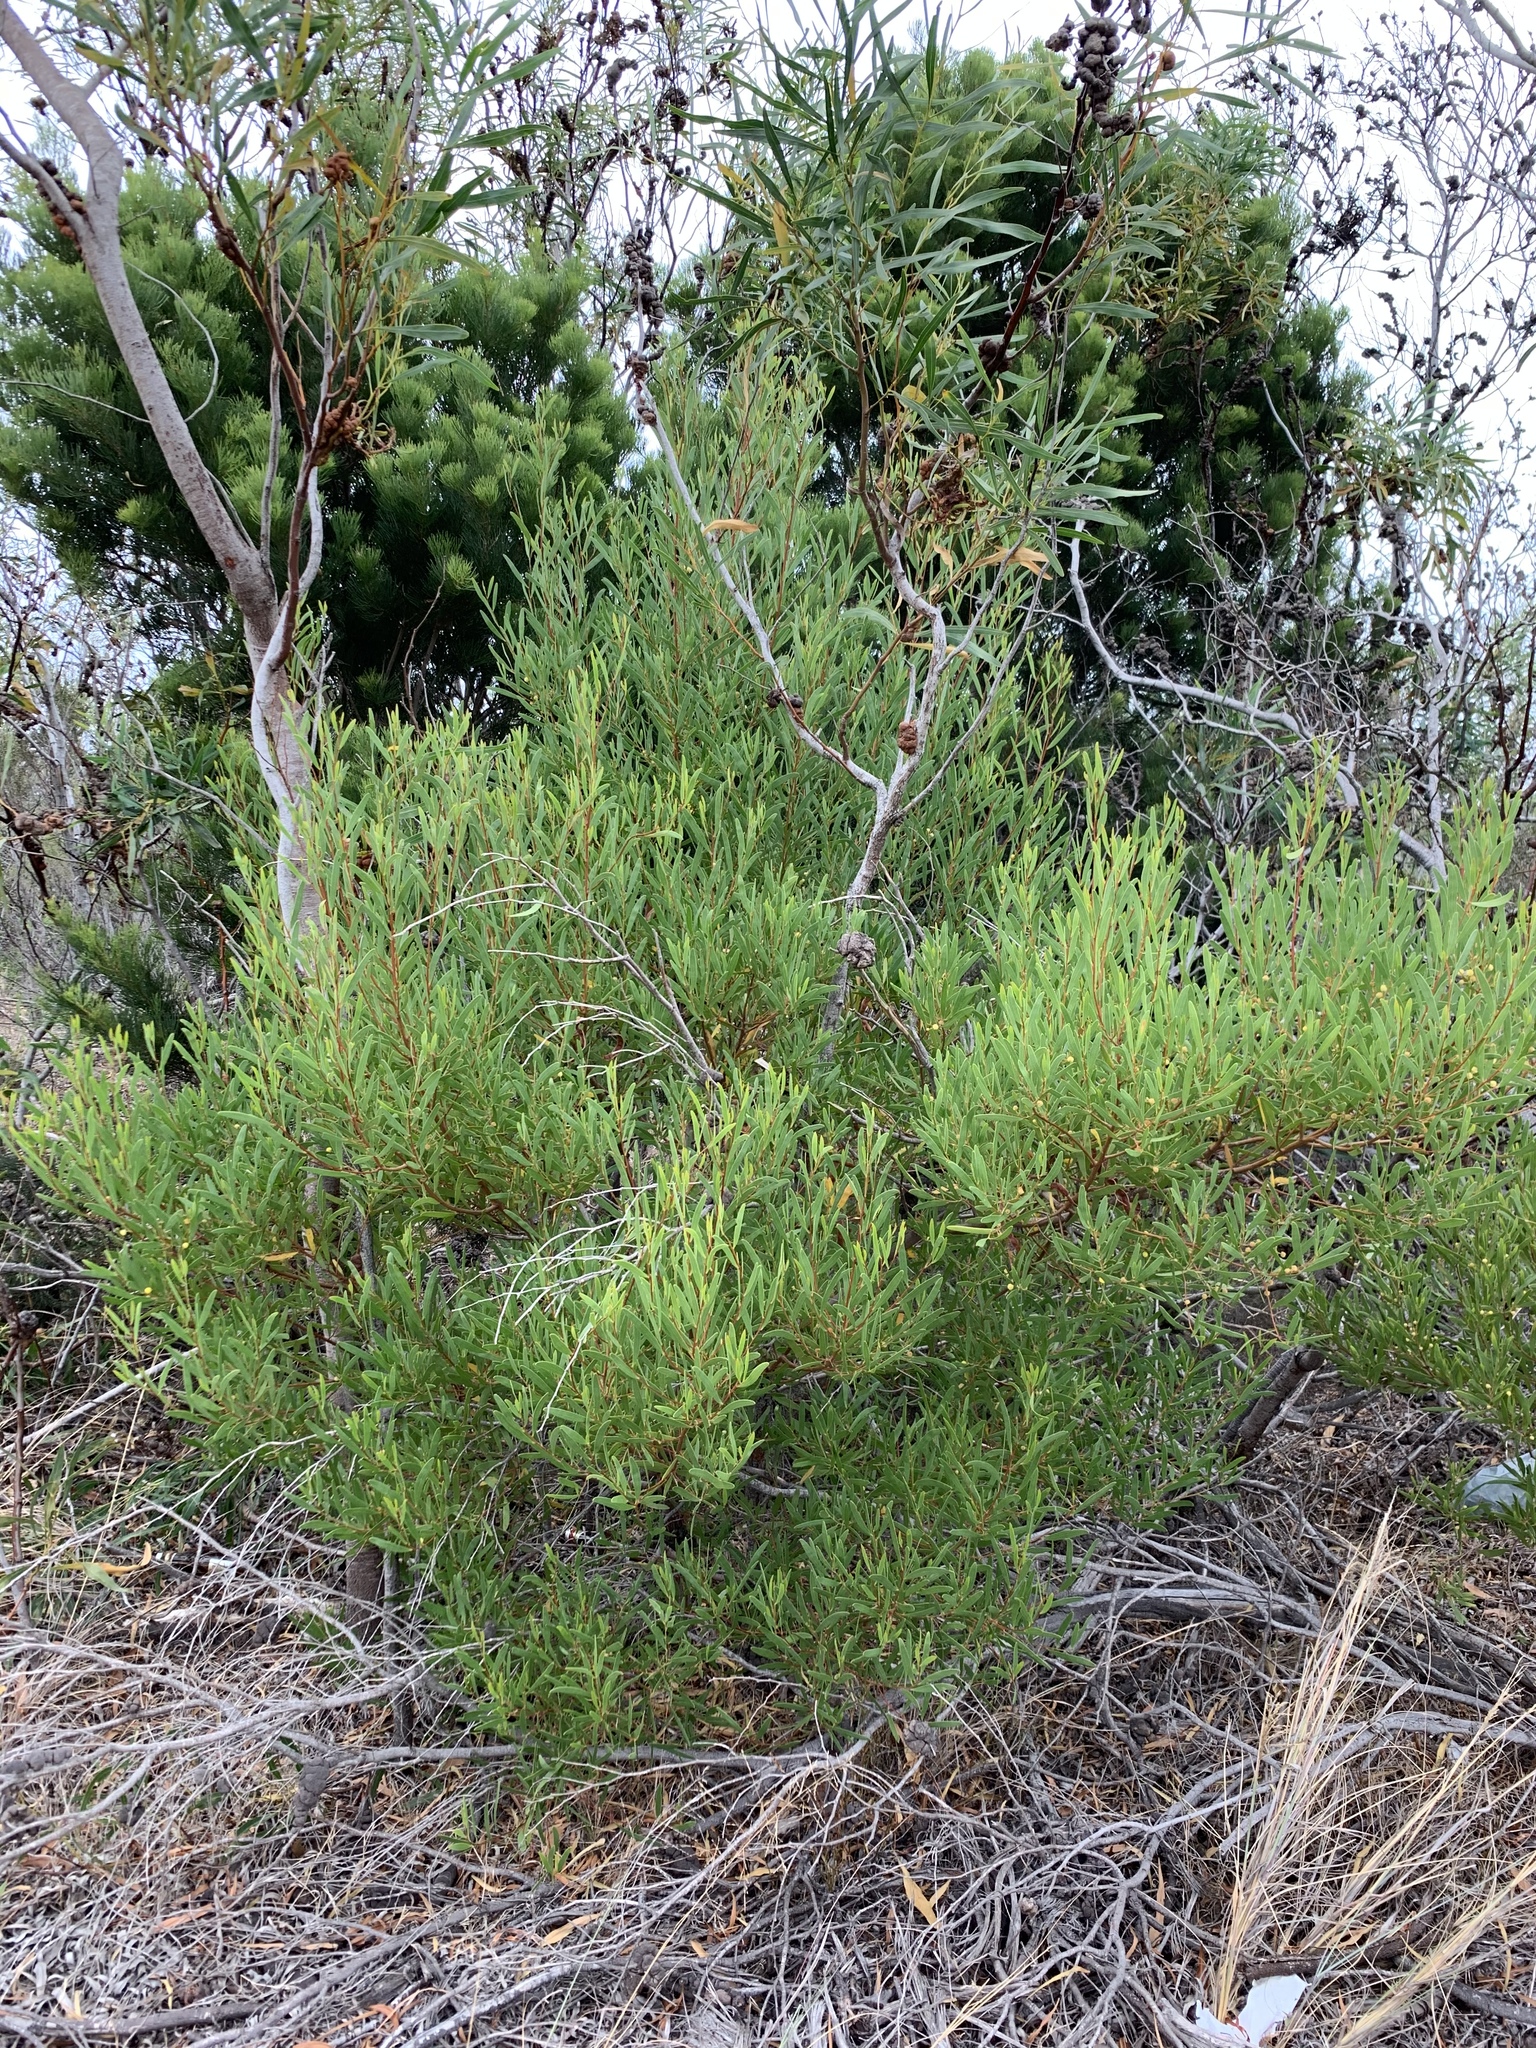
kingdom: Plantae
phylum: Tracheophyta
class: Magnoliopsida
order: Fabales
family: Fabaceae
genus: Acacia
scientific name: Acacia cyclops
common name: Coastal wattle
